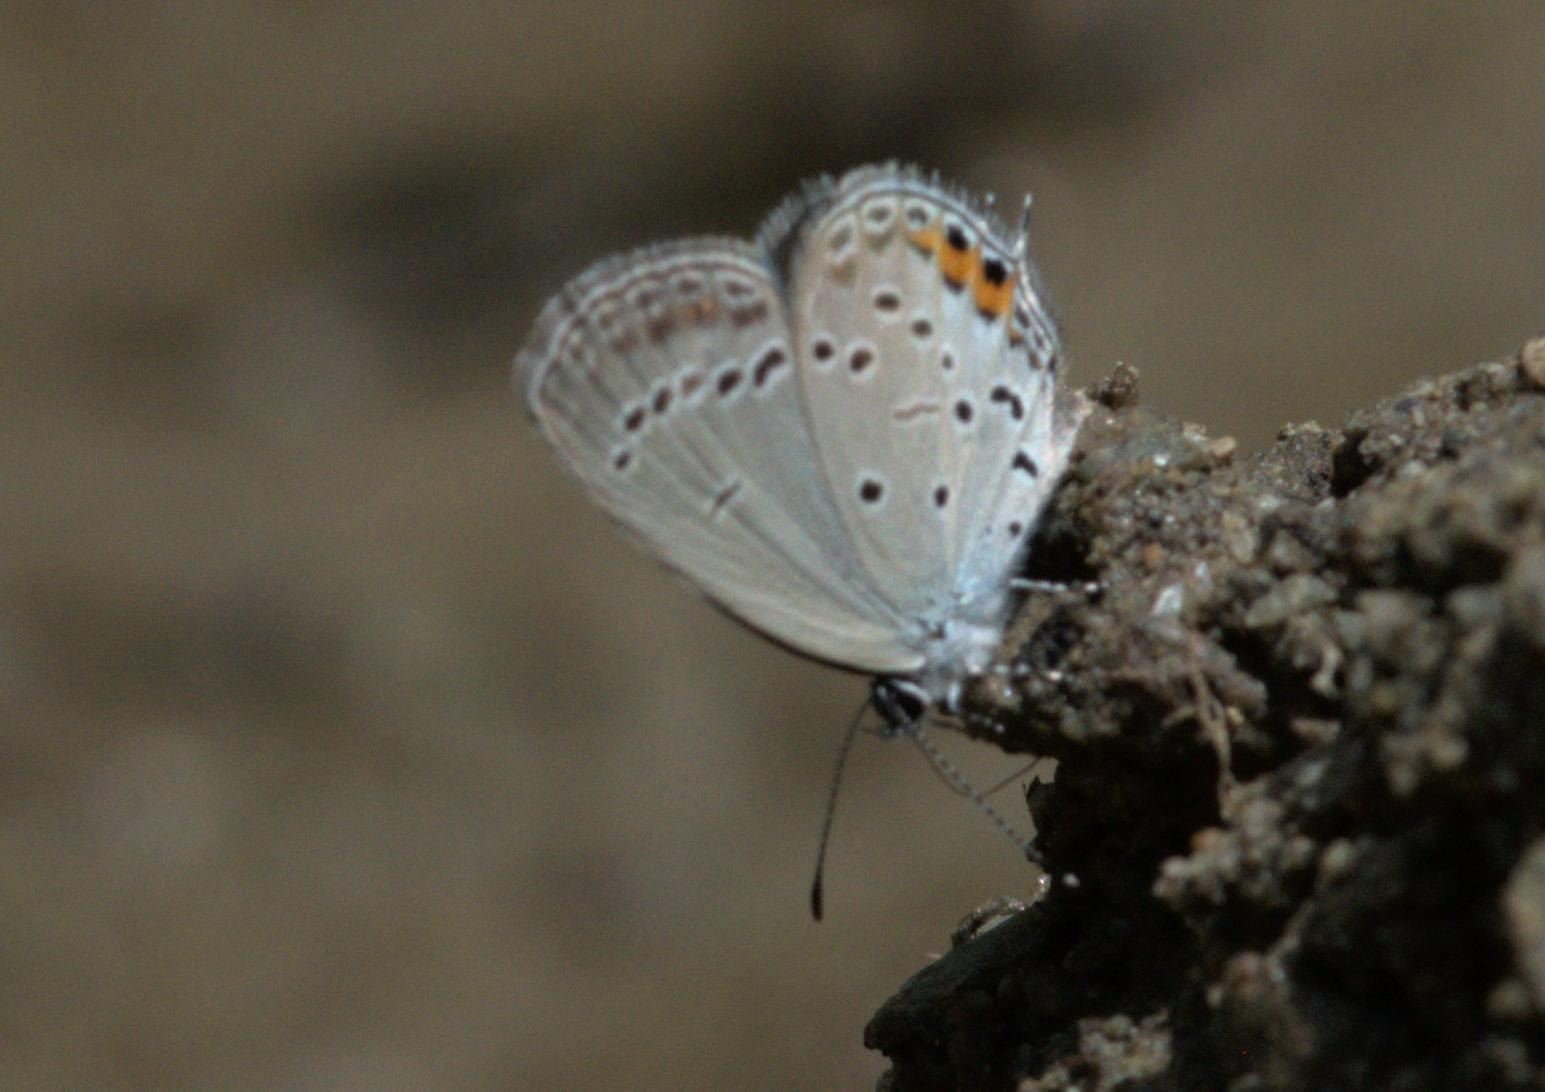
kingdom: Animalia
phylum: Arthropoda
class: Insecta
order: Lepidoptera
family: Lycaenidae
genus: Elkalyce
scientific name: Elkalyce argiades
